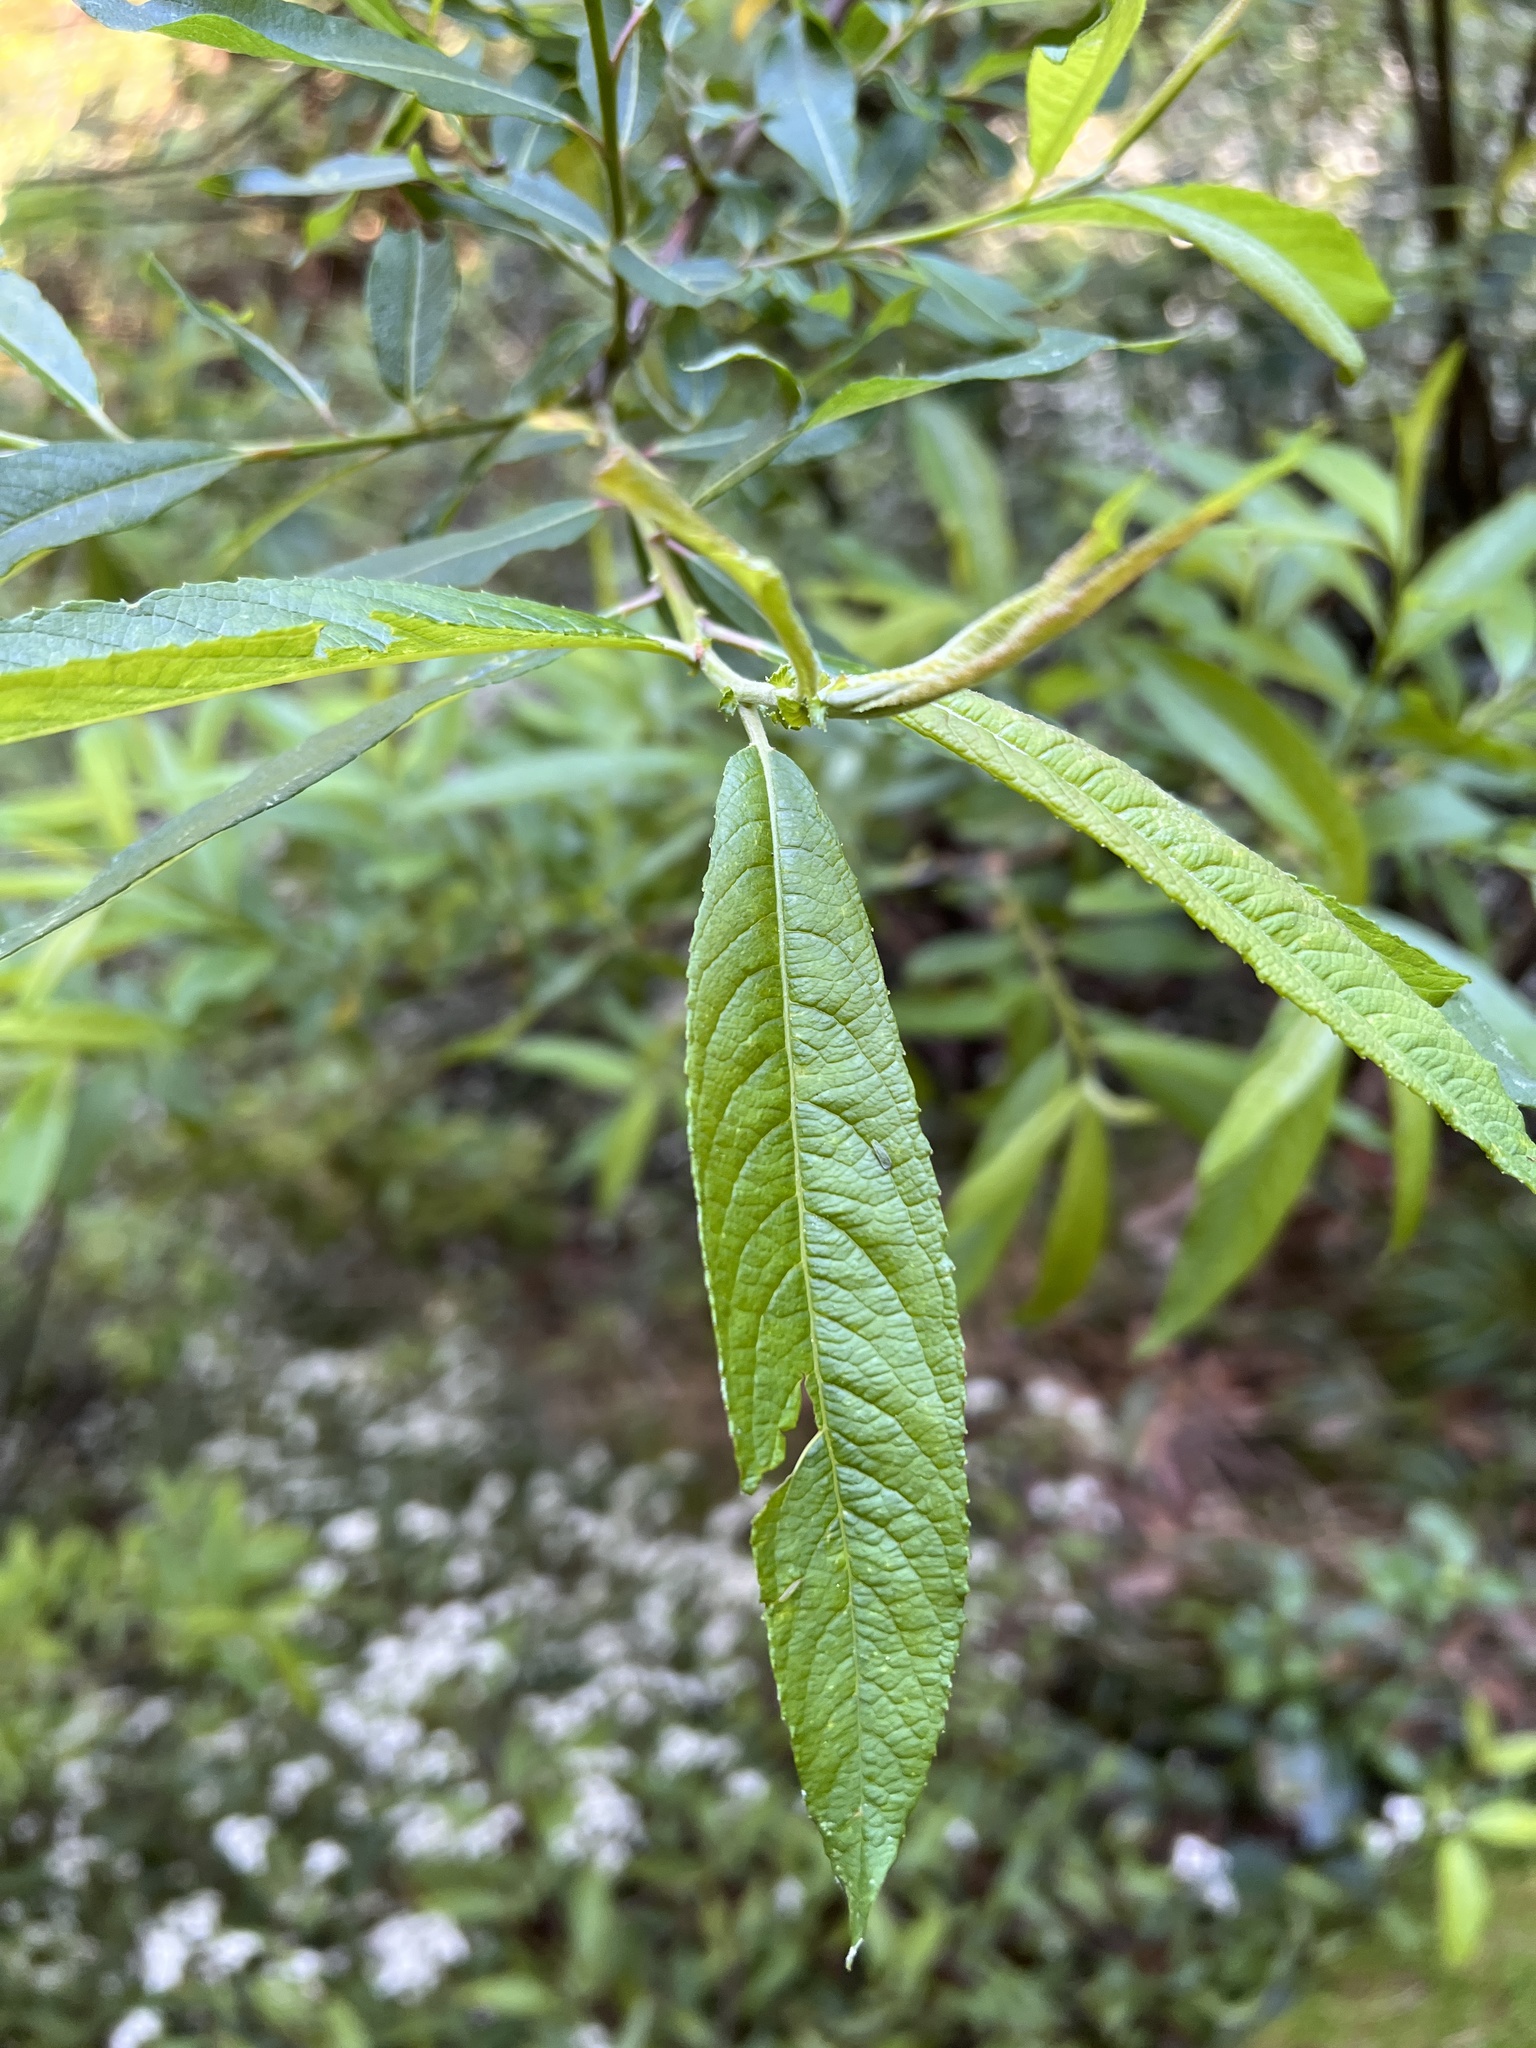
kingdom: Plantae
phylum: Tracheophyta
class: Magnoliopsida
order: Malpighiales
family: Salicaceae
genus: Salix
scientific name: Salix canariensis
